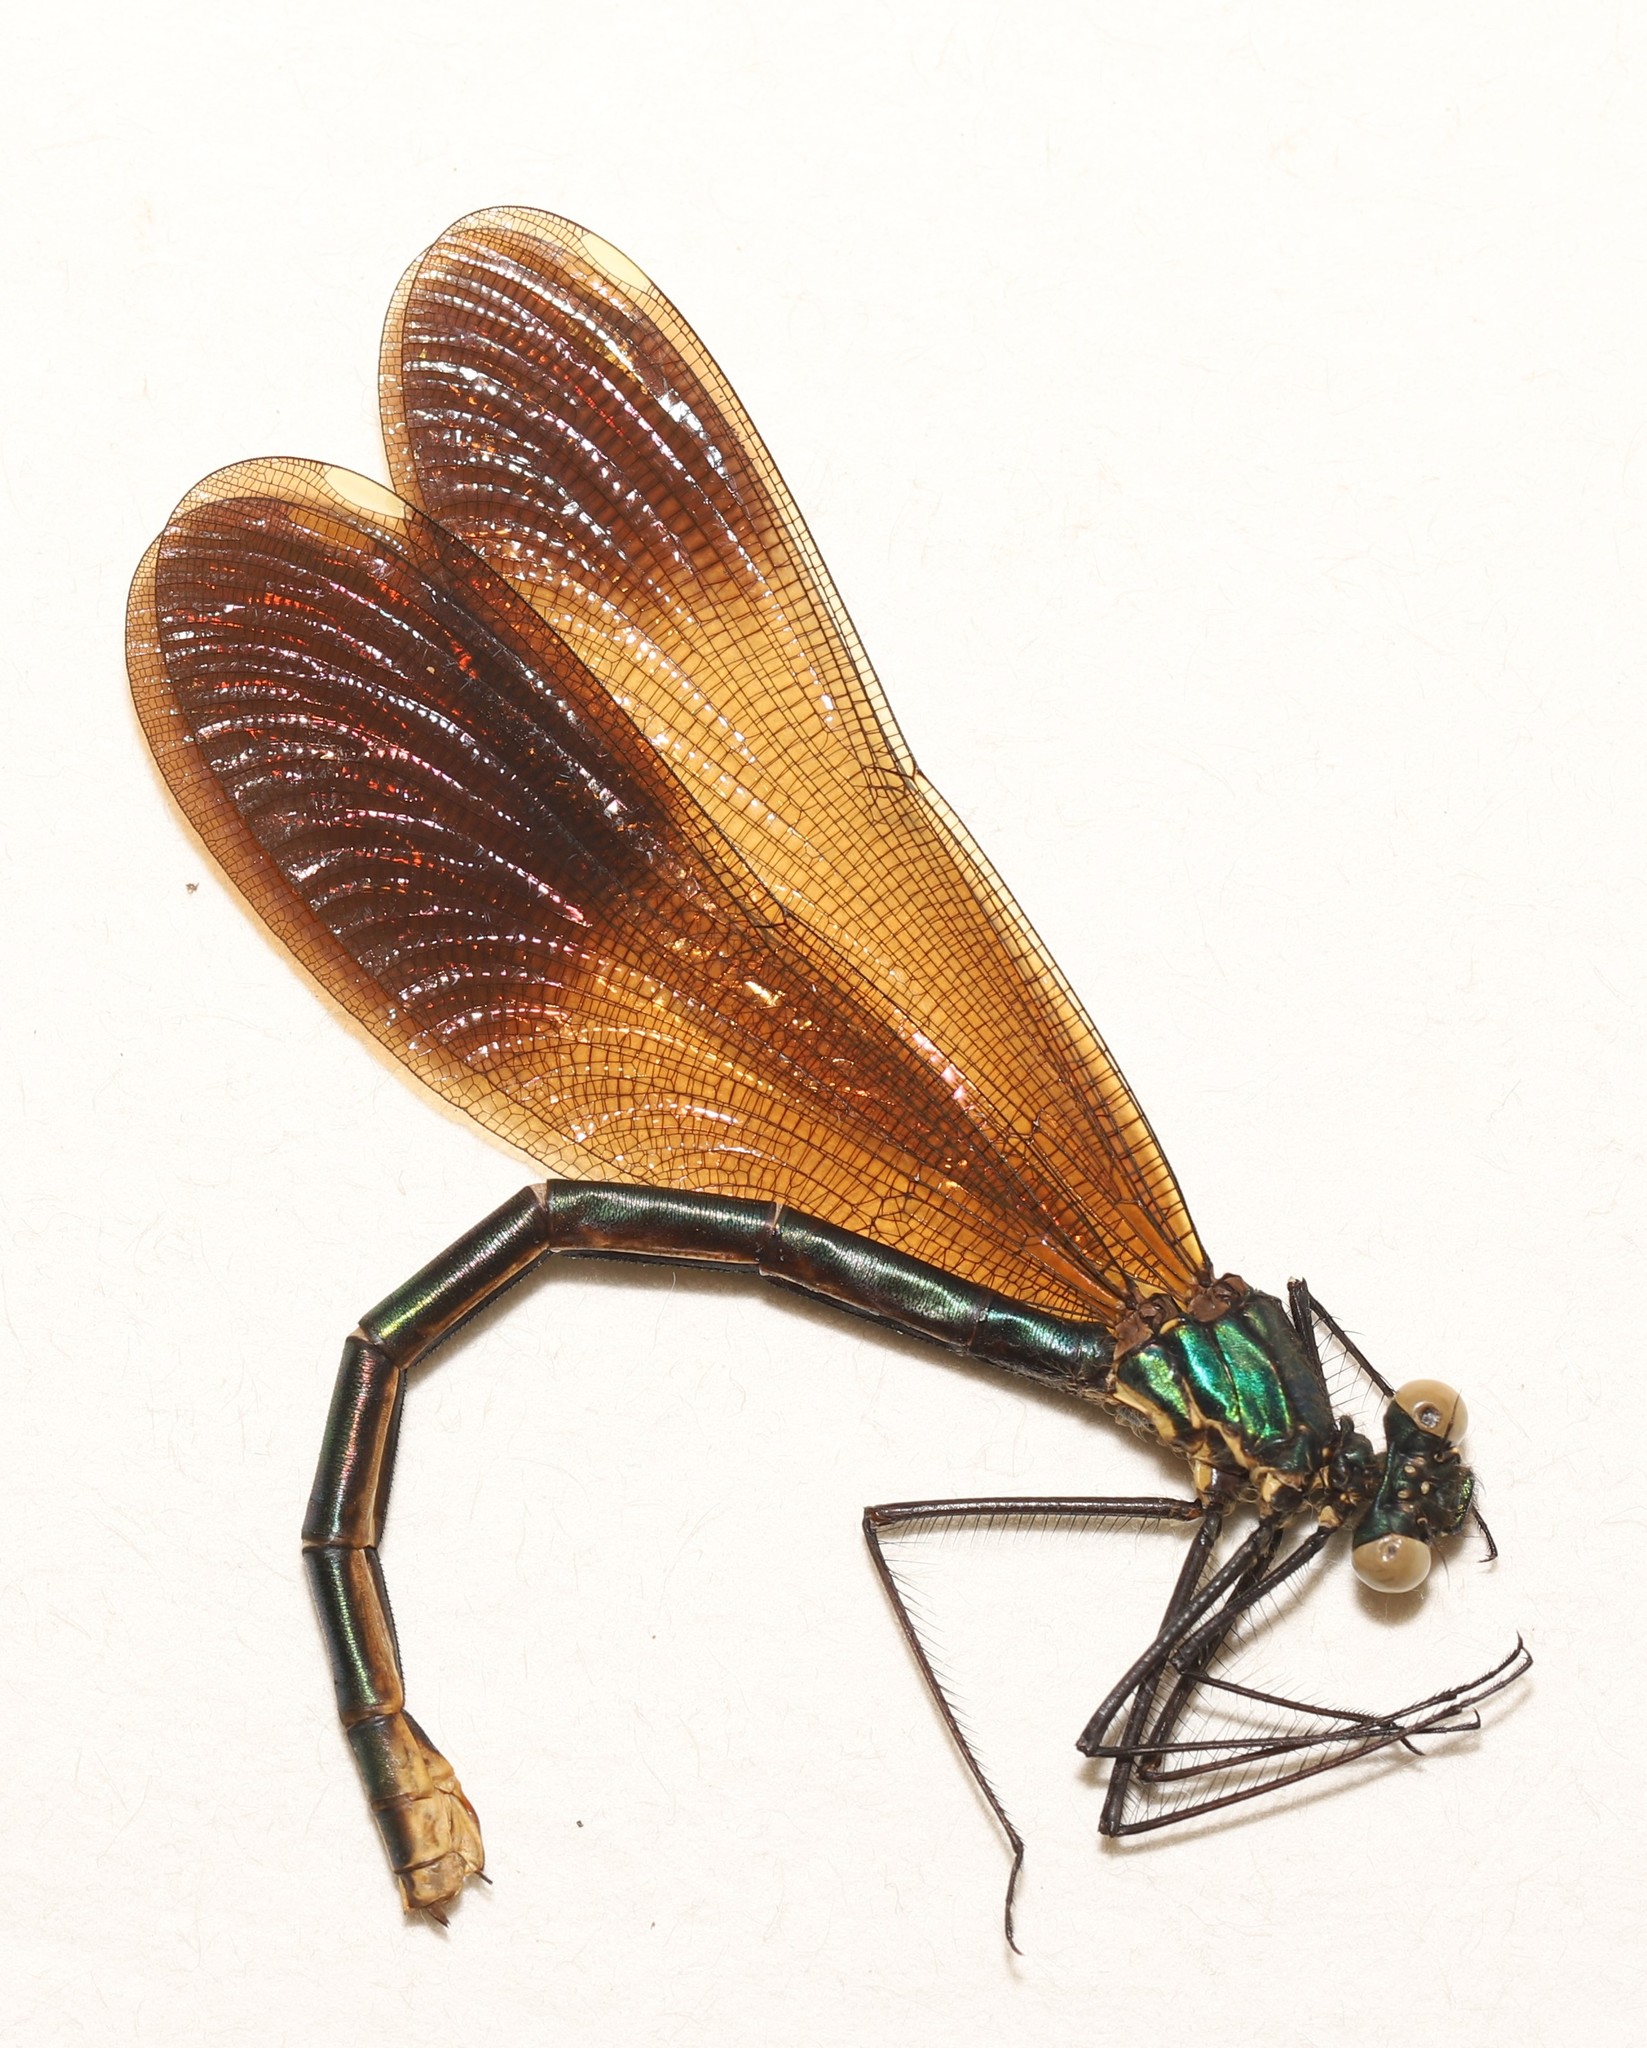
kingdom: Animalia
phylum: Arthropoda
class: Insecta
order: Odonata
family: Calopterygidae
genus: Calopteryx
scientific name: Calopteryx aequabilis
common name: River jewelwing
